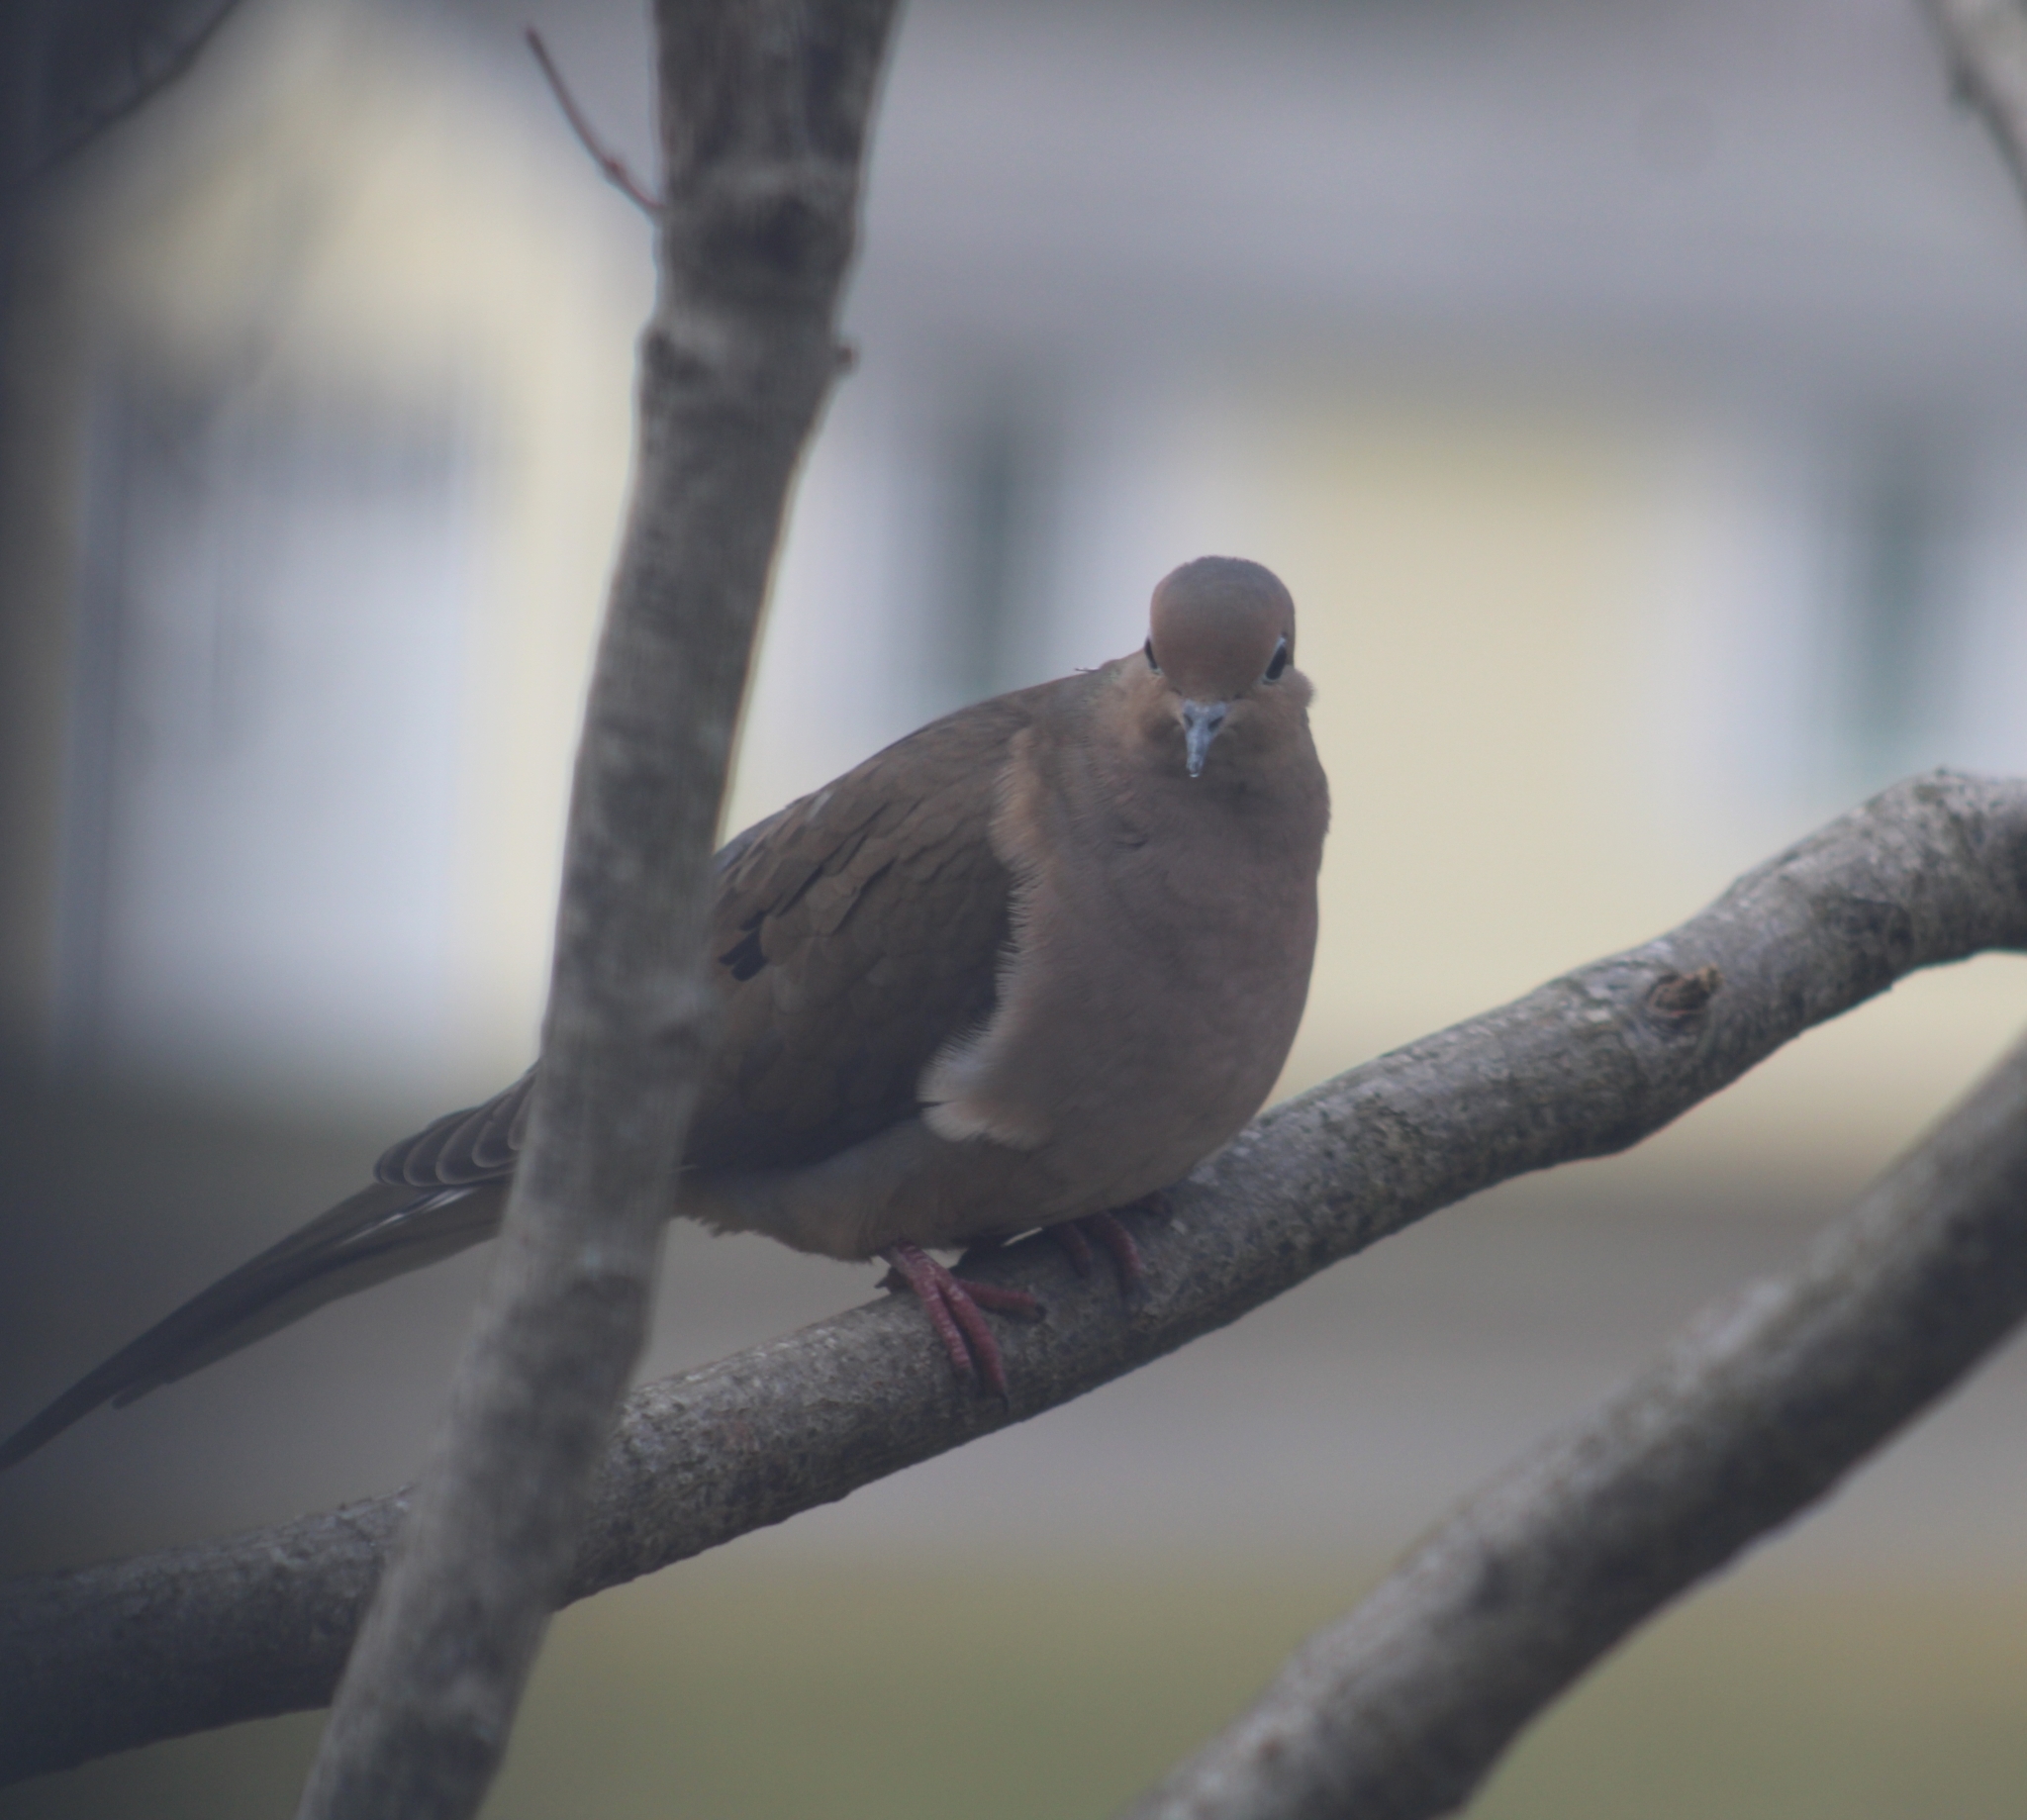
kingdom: Animalia
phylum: Chordata
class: Aves
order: Columbiformes
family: Columbidae
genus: Zenaida
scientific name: Zenaida macroura
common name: Mourning dove
